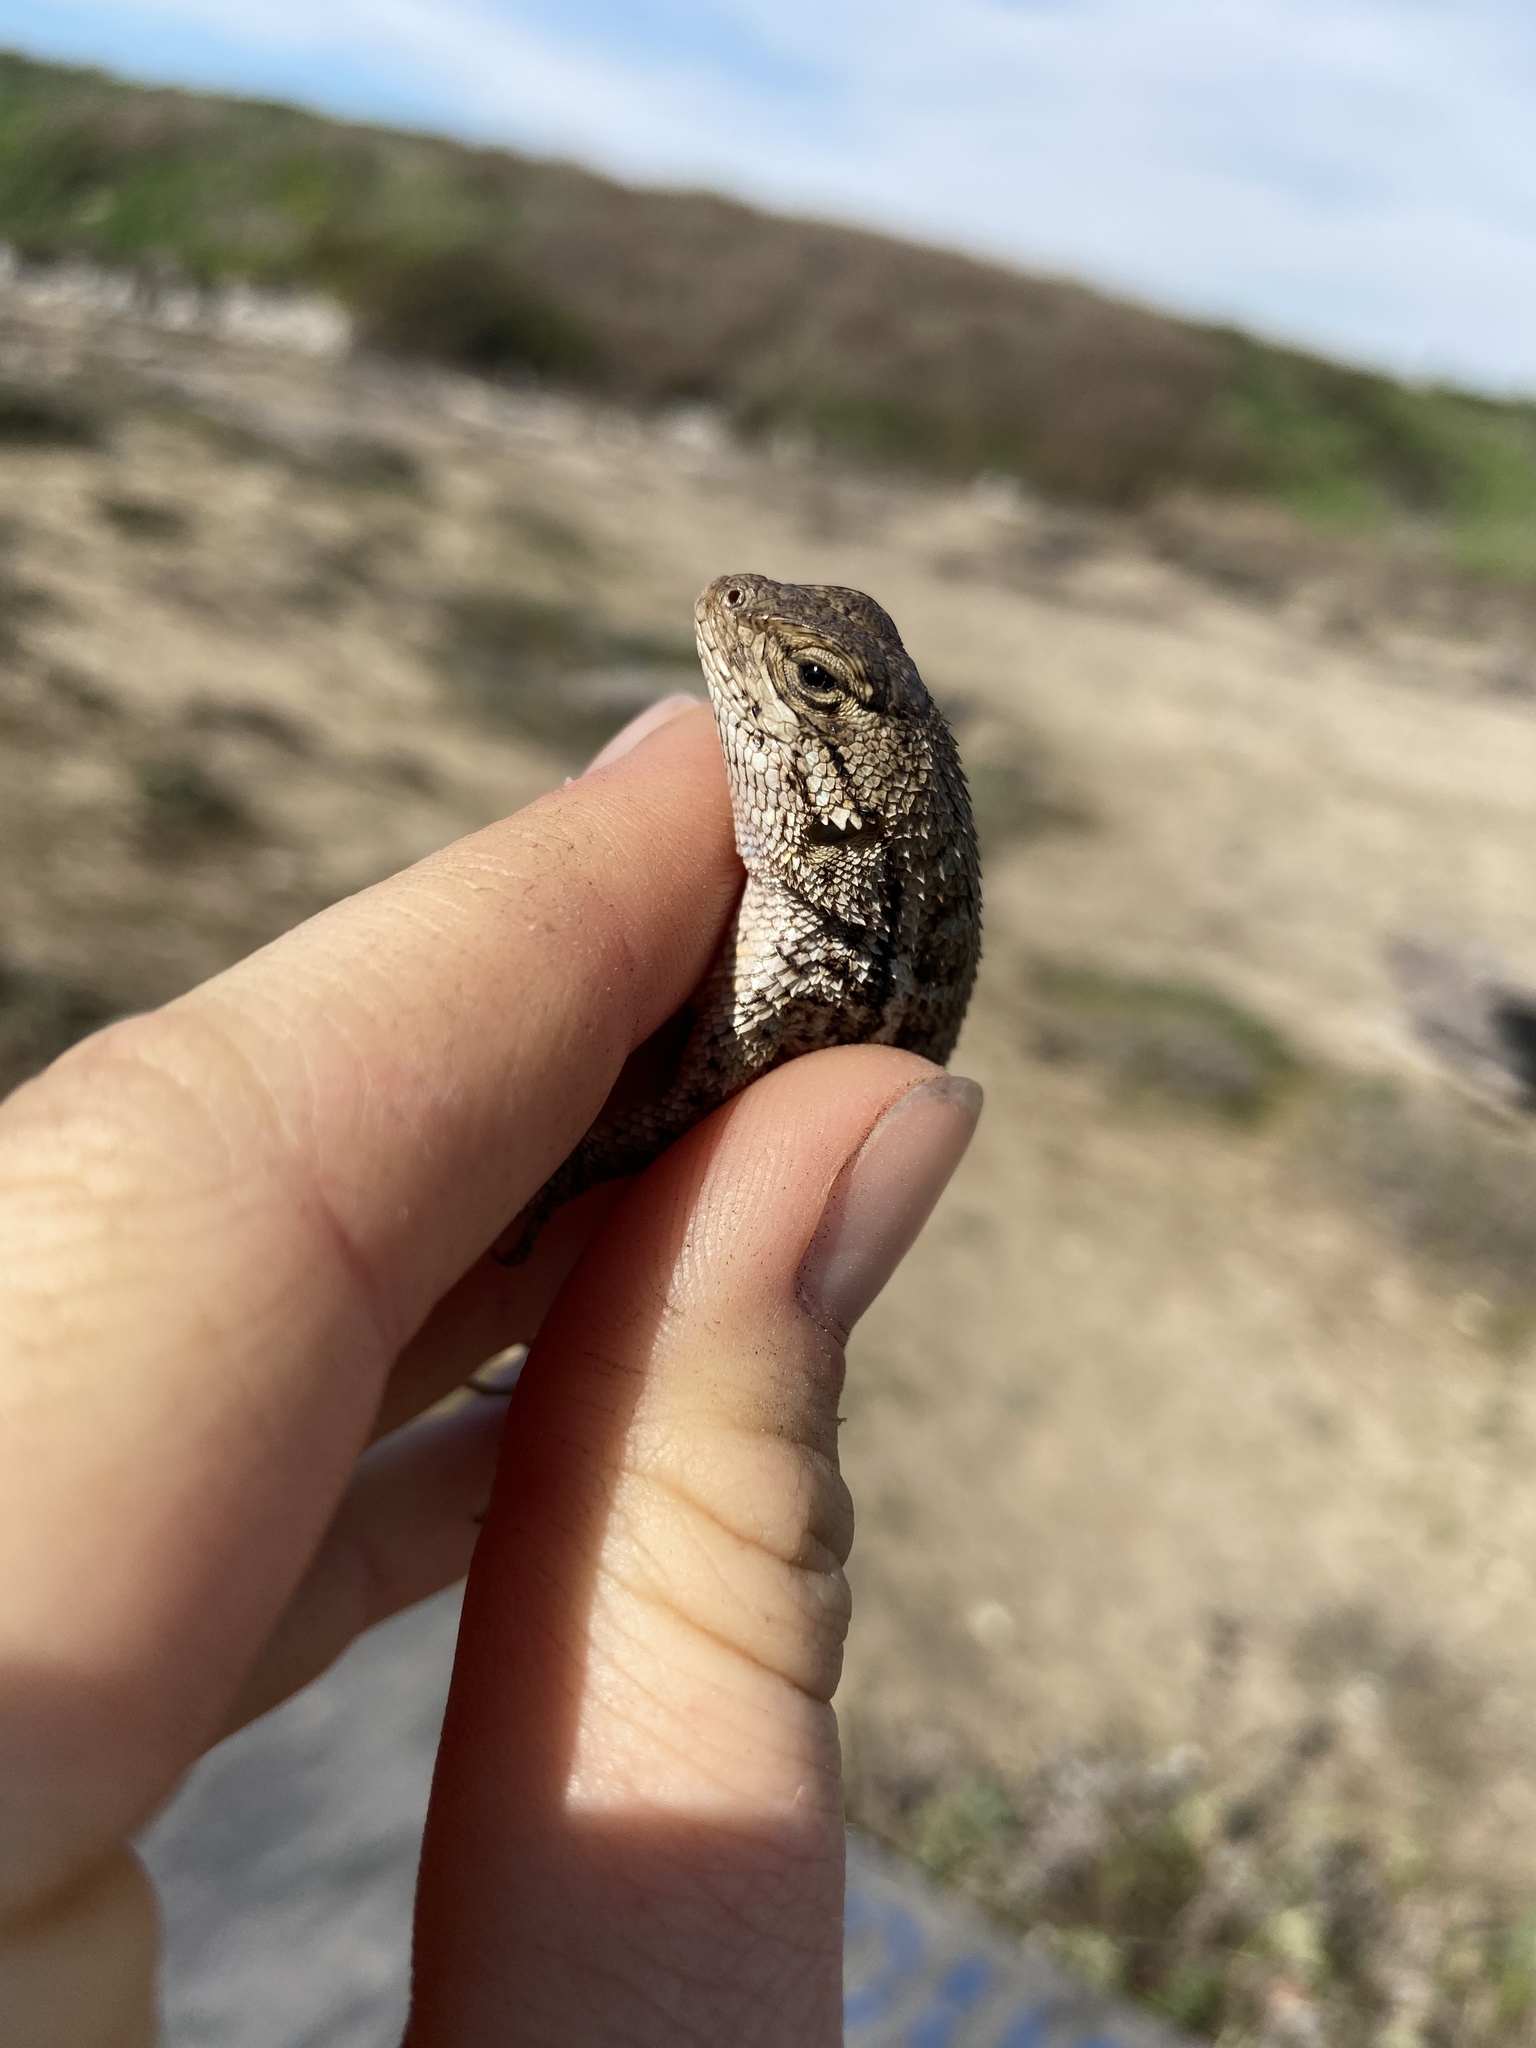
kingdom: Animalia
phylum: Chordata
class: Squamata
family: Phrynosomatidae
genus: Sceloporus
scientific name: Sceloporus occidentalis
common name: Western fence lizard
